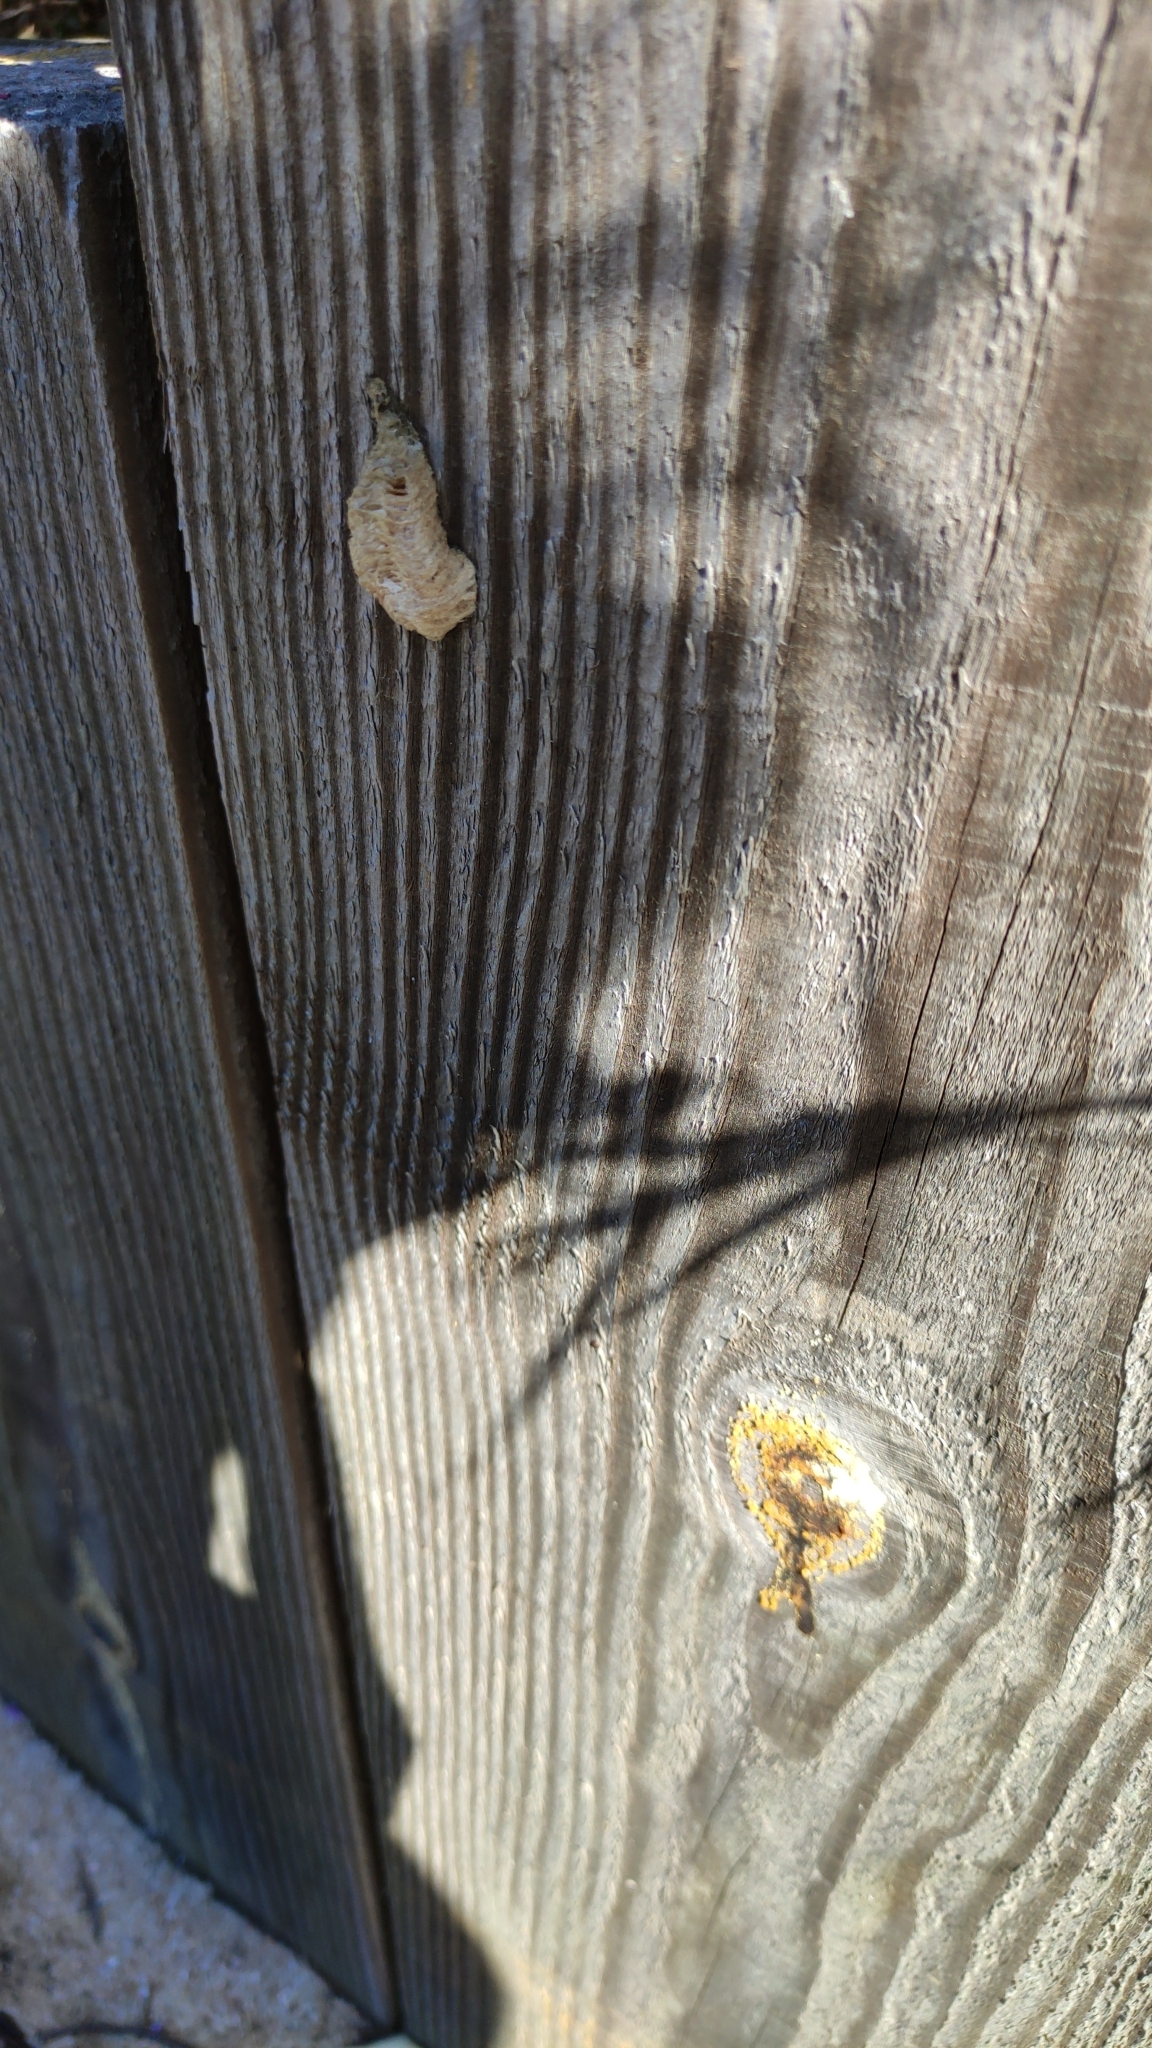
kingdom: Animalia
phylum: Arthropoda
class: Insecta
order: Mantodea
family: Mantidae
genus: Mantis
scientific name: Mantis religiosa
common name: Praying mantis
